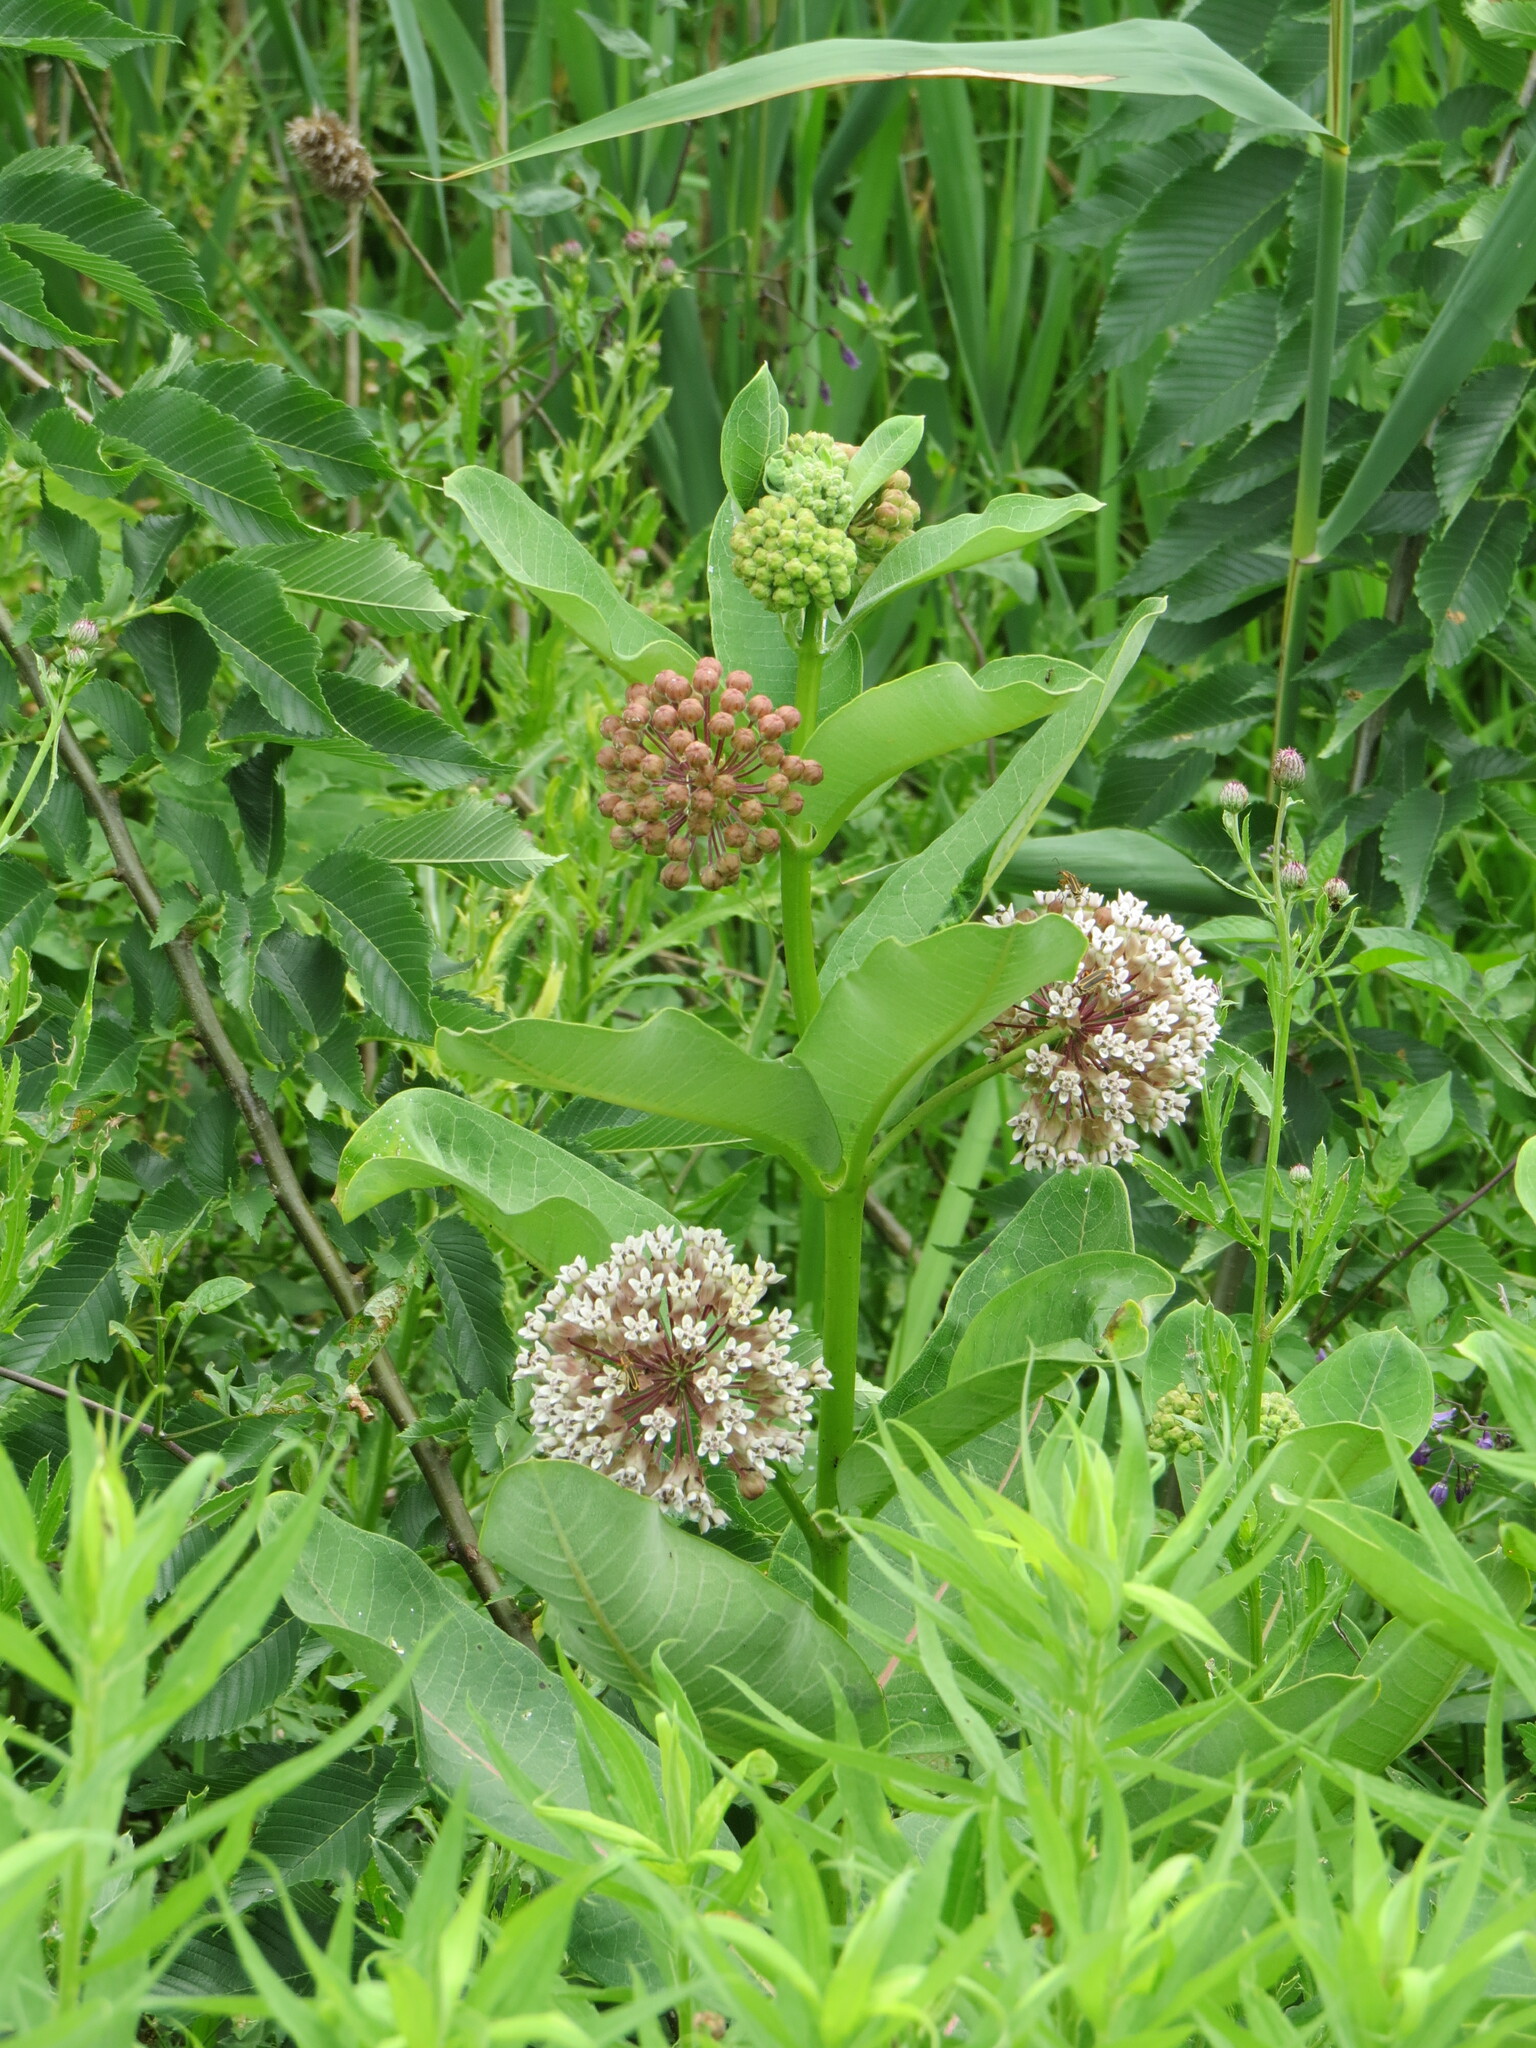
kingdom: Plantae
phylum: Tracheophyta
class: Magnoliopsida
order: Gentianales
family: Apocynaceae
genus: Asclepias
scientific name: Asclepias syriaca
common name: Common milkweed
